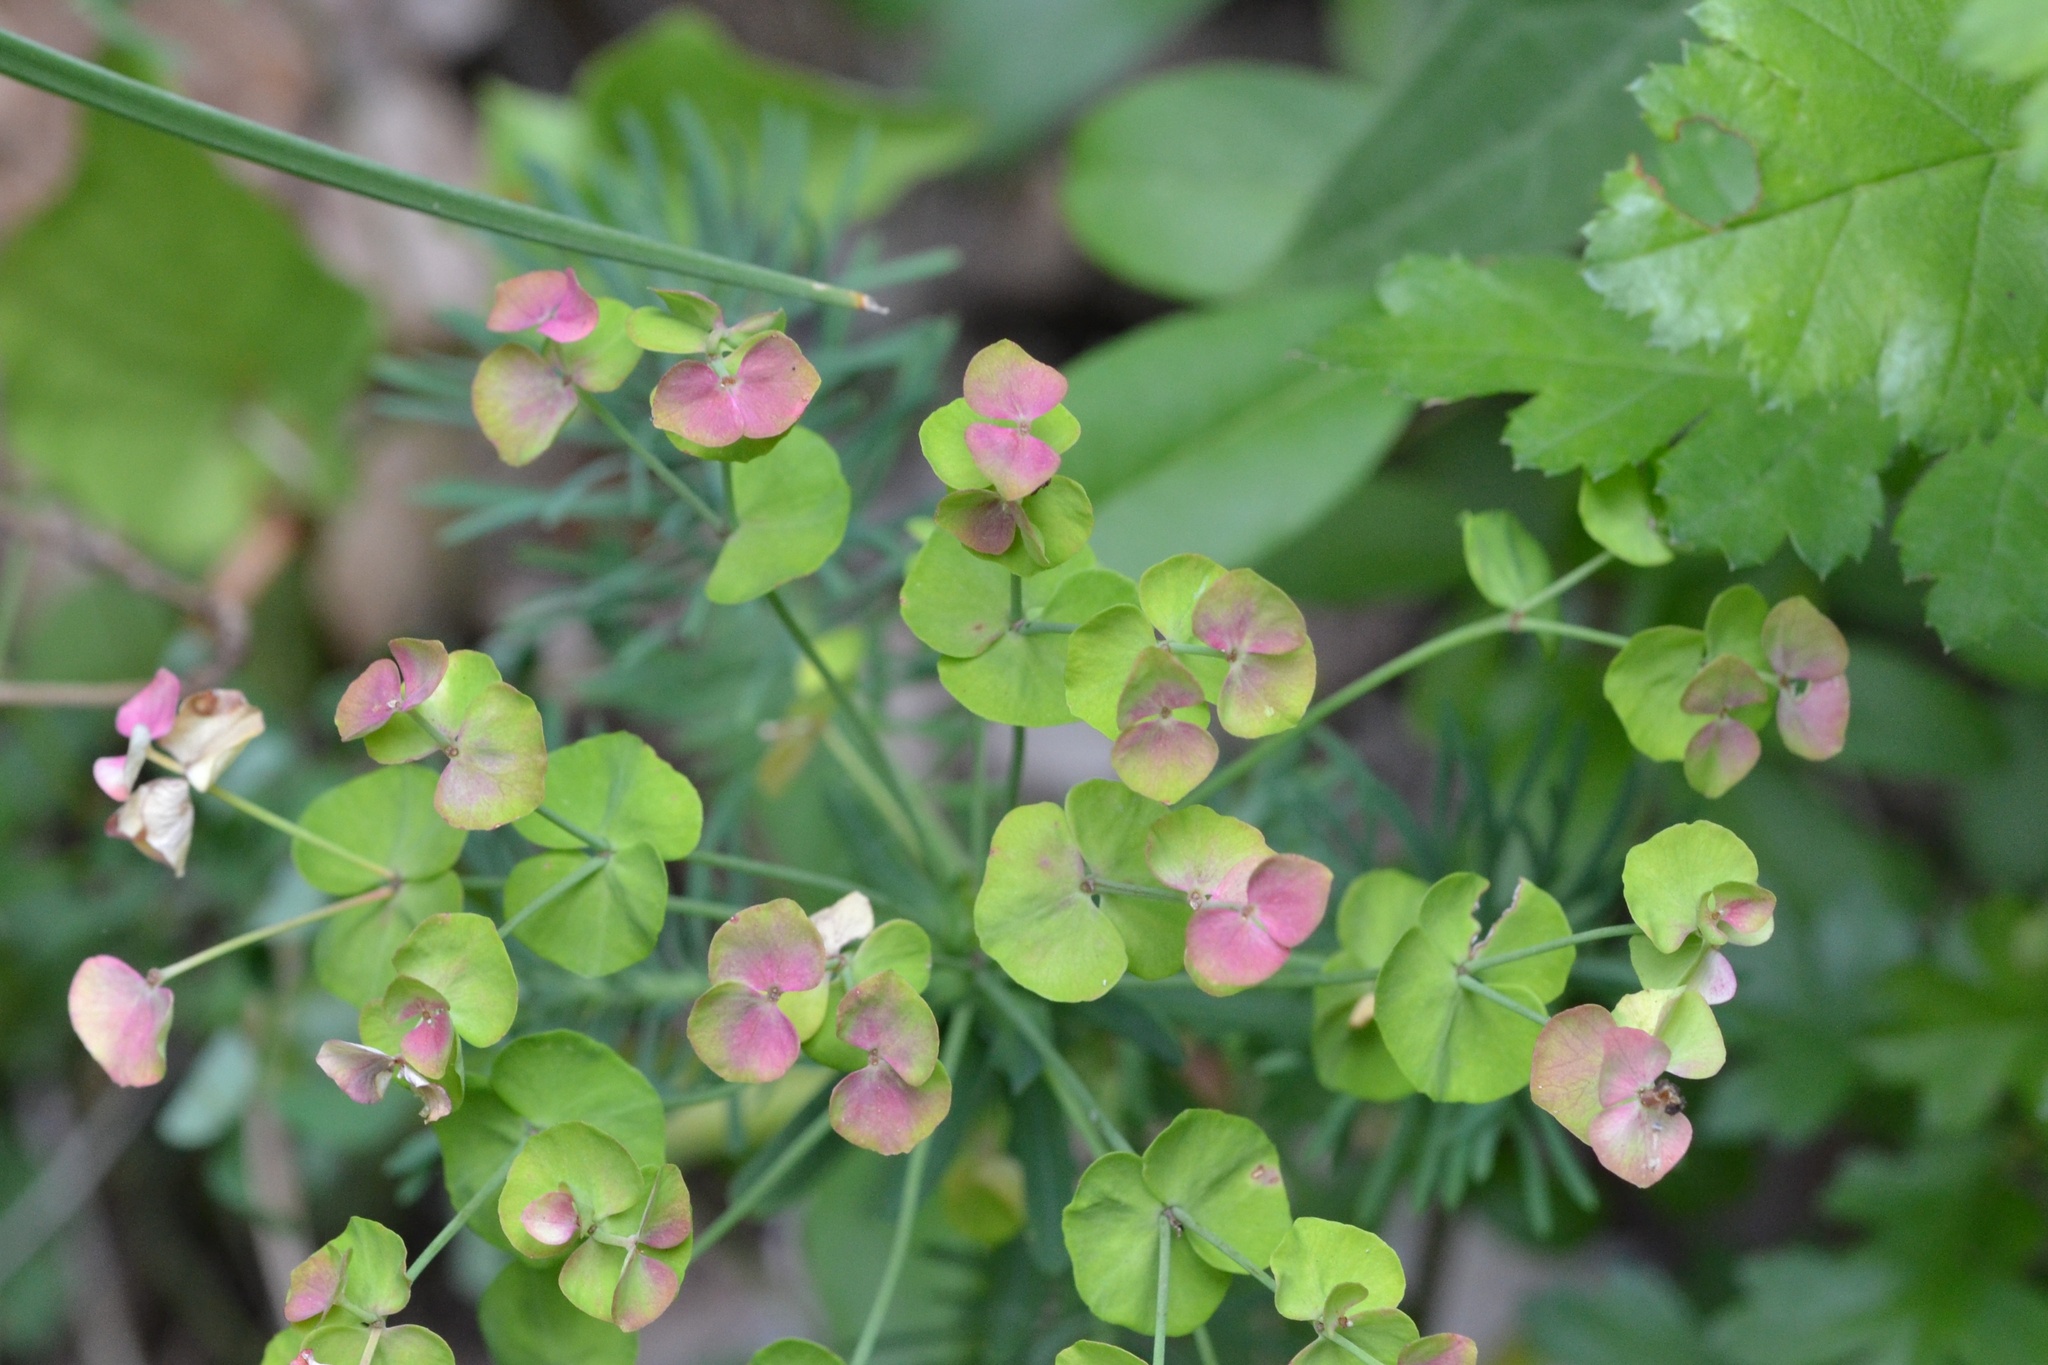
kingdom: Plantae
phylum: Tracheophyta
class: Magnoliopsida
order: Malpighiales
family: Euphorbiaceae
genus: Euphorbia
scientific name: Euphorbia cyparissias
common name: Cypress spurge
